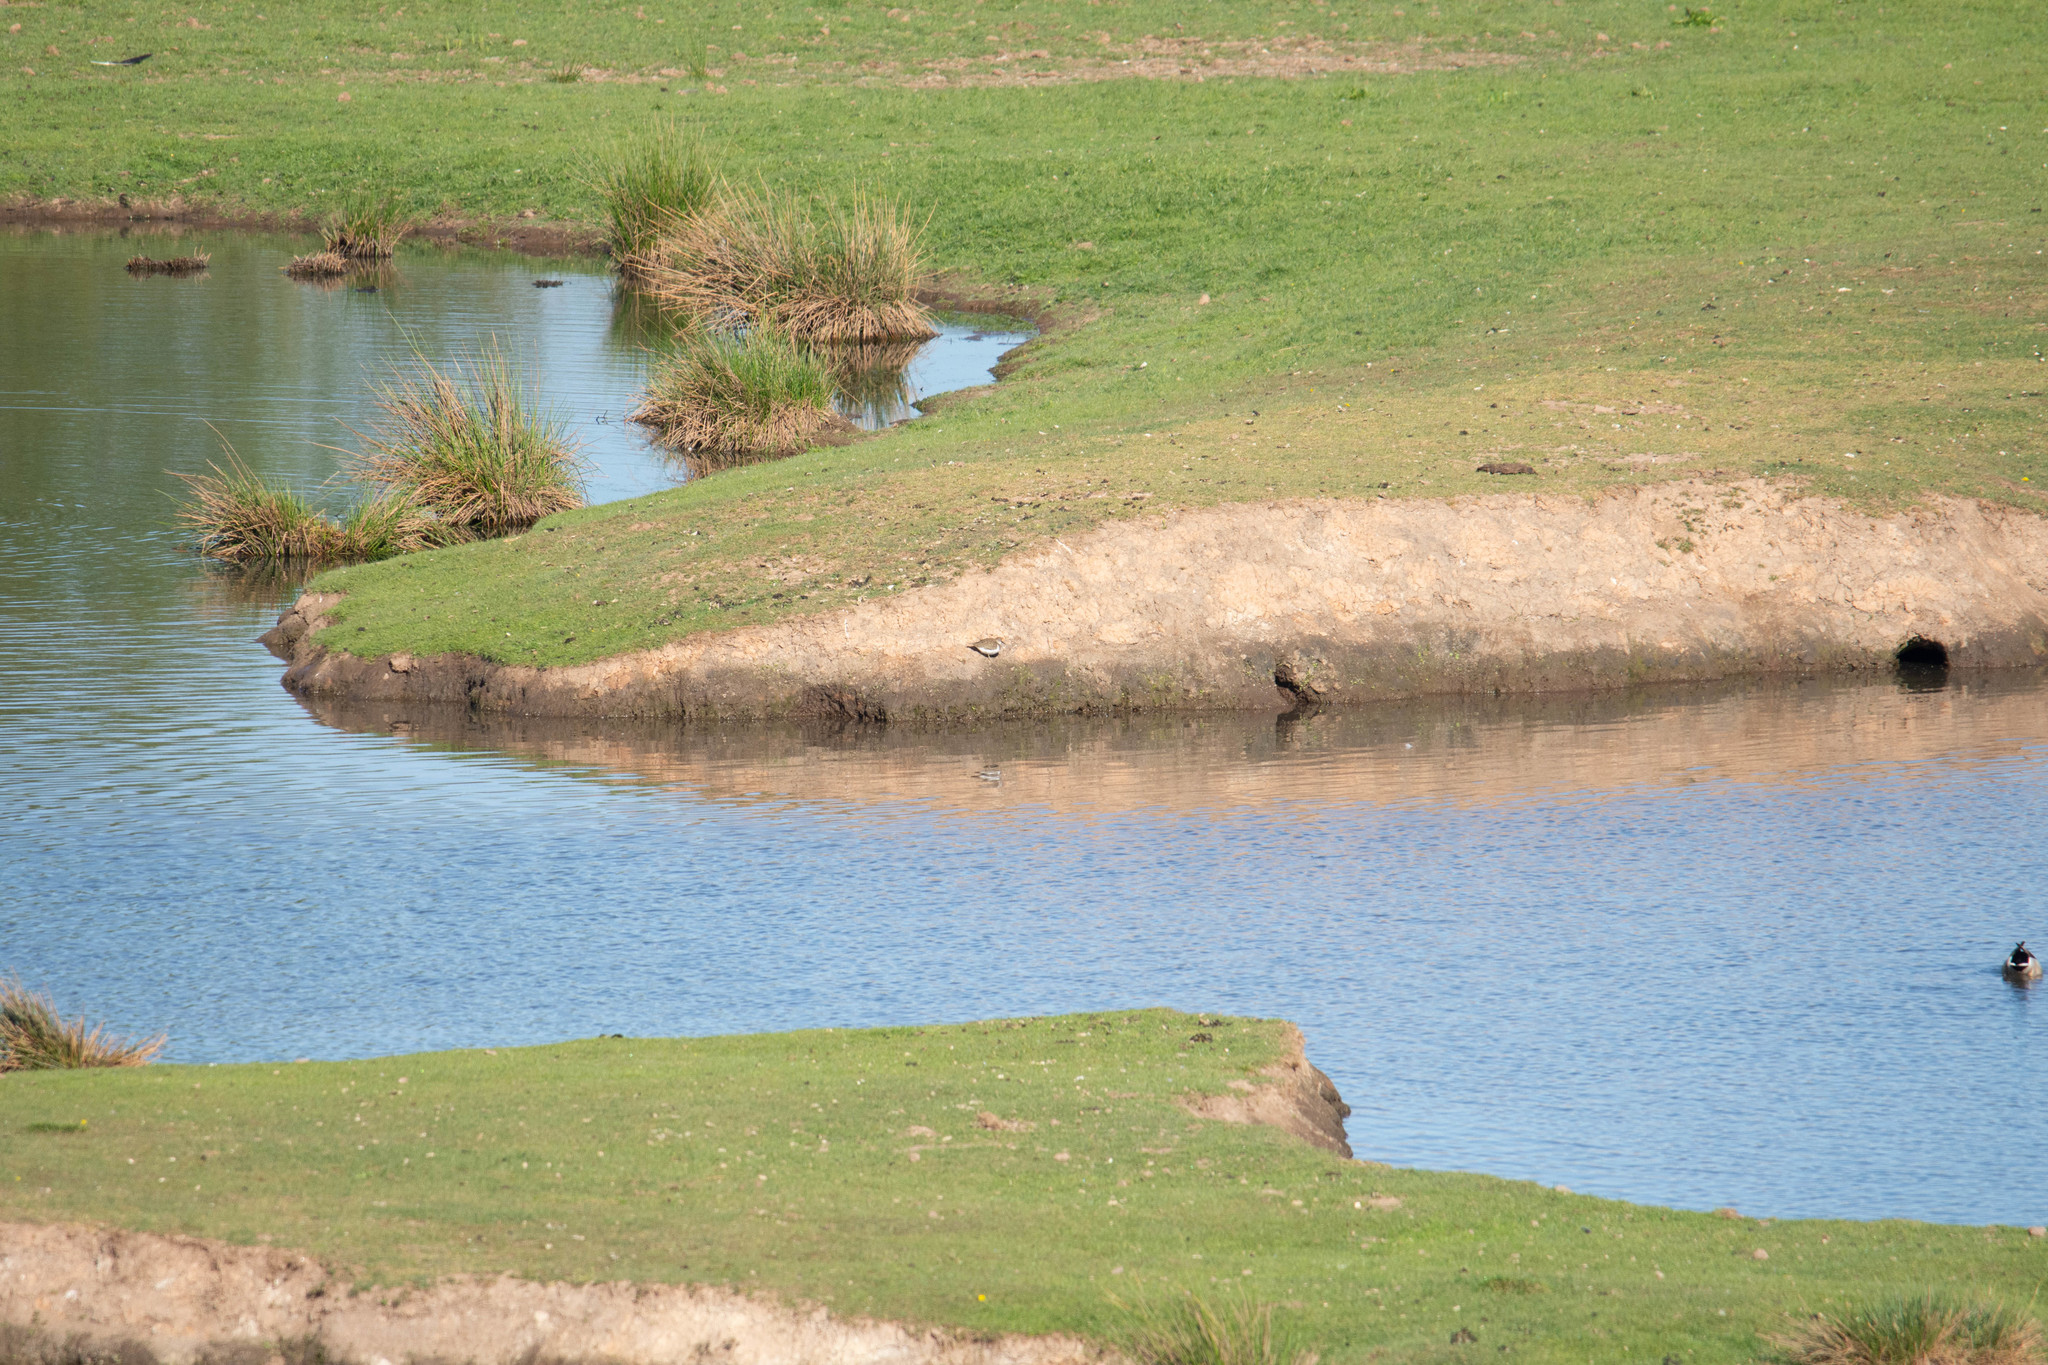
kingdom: Animalia
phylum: Chordata
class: Aves
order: Charadriiformes
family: Scolopacidae
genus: Actitis
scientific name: Actitis hypoleucos
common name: Common sandpiper
